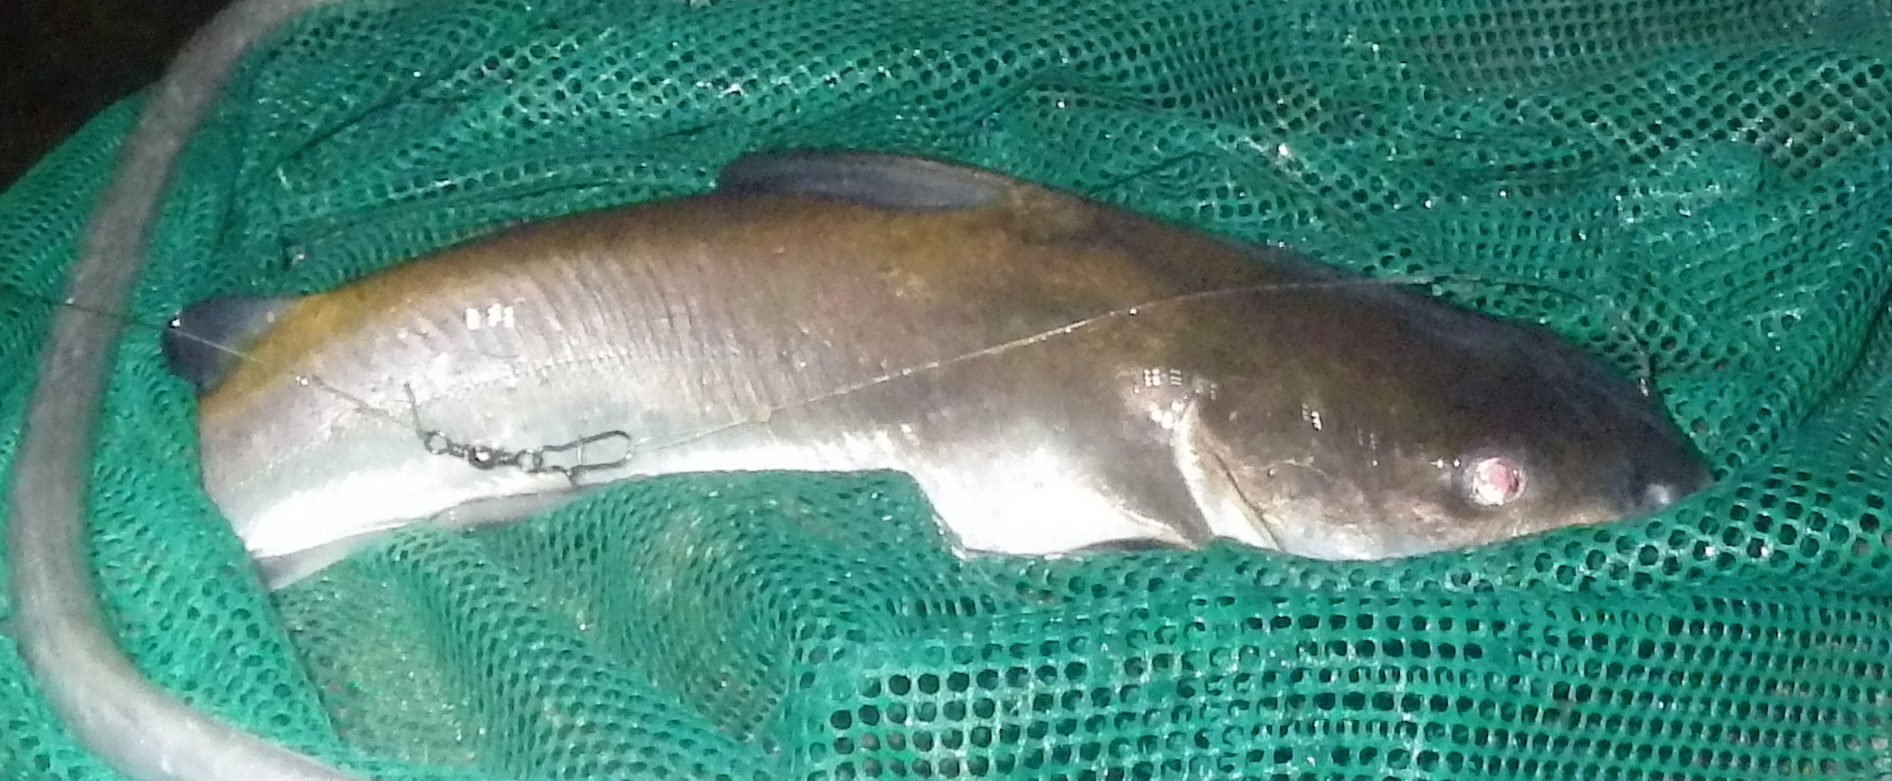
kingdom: Animalia
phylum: Chordata
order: Siluriformes
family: Ariidae
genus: Ariopsis
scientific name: Ariopsis felis
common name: Hardhead catfish
